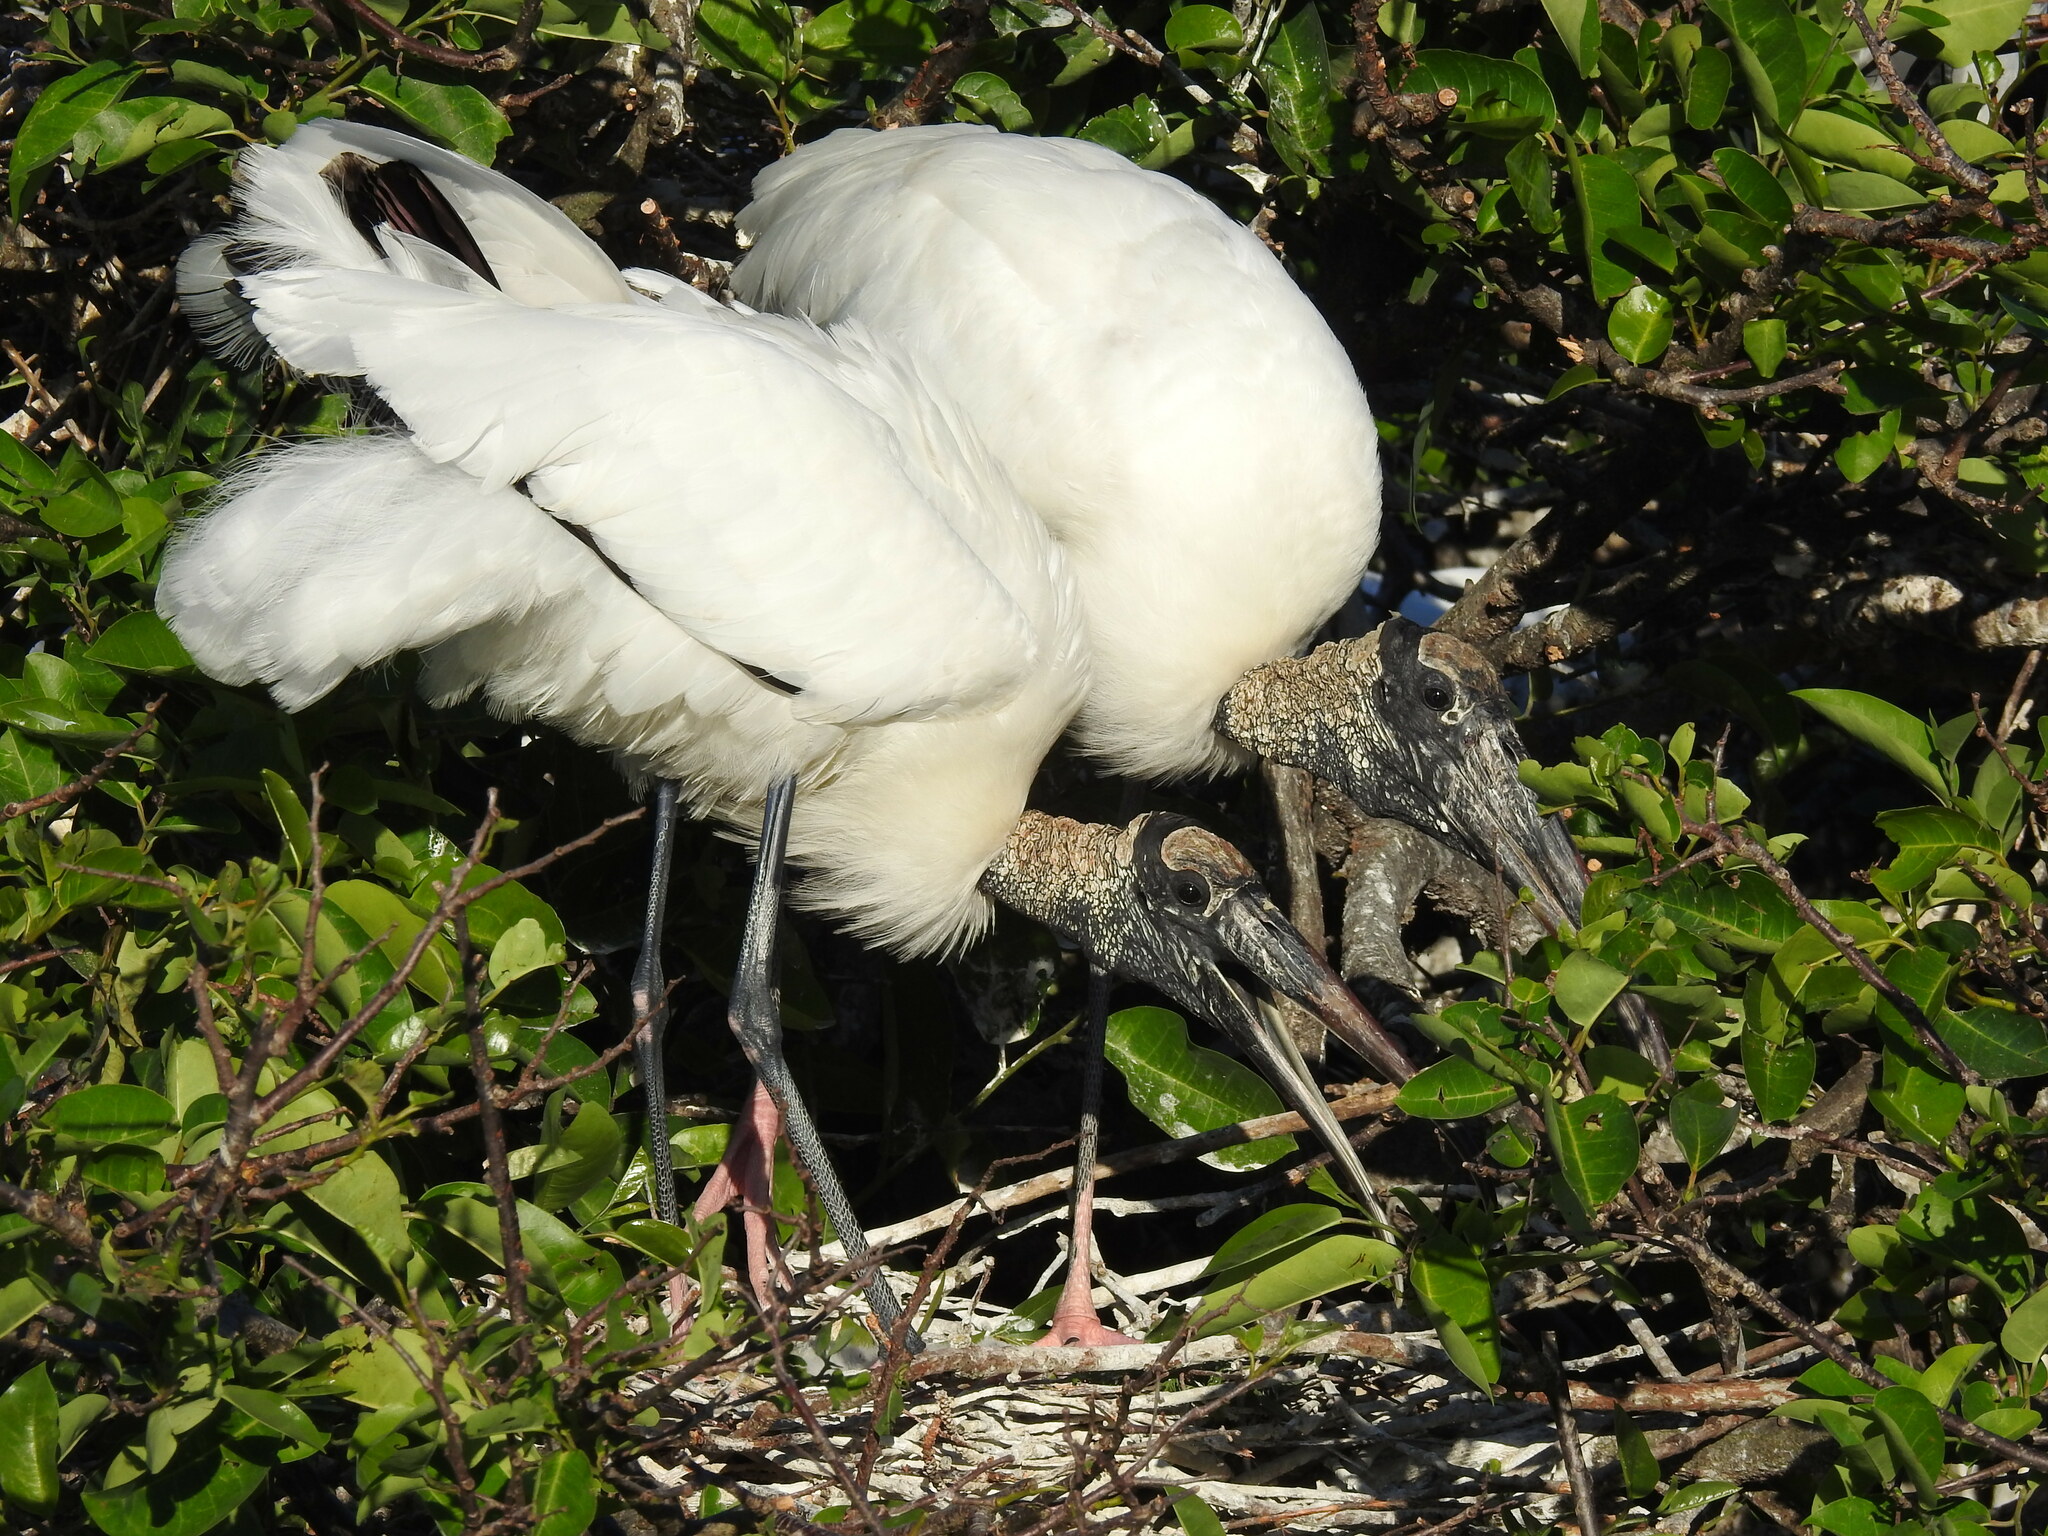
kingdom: Animalia
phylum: Chordata
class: Aves
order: Ciconiiformes
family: Ciconiidae
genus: Mycteria
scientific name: Mycteria americana
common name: Wood stork
